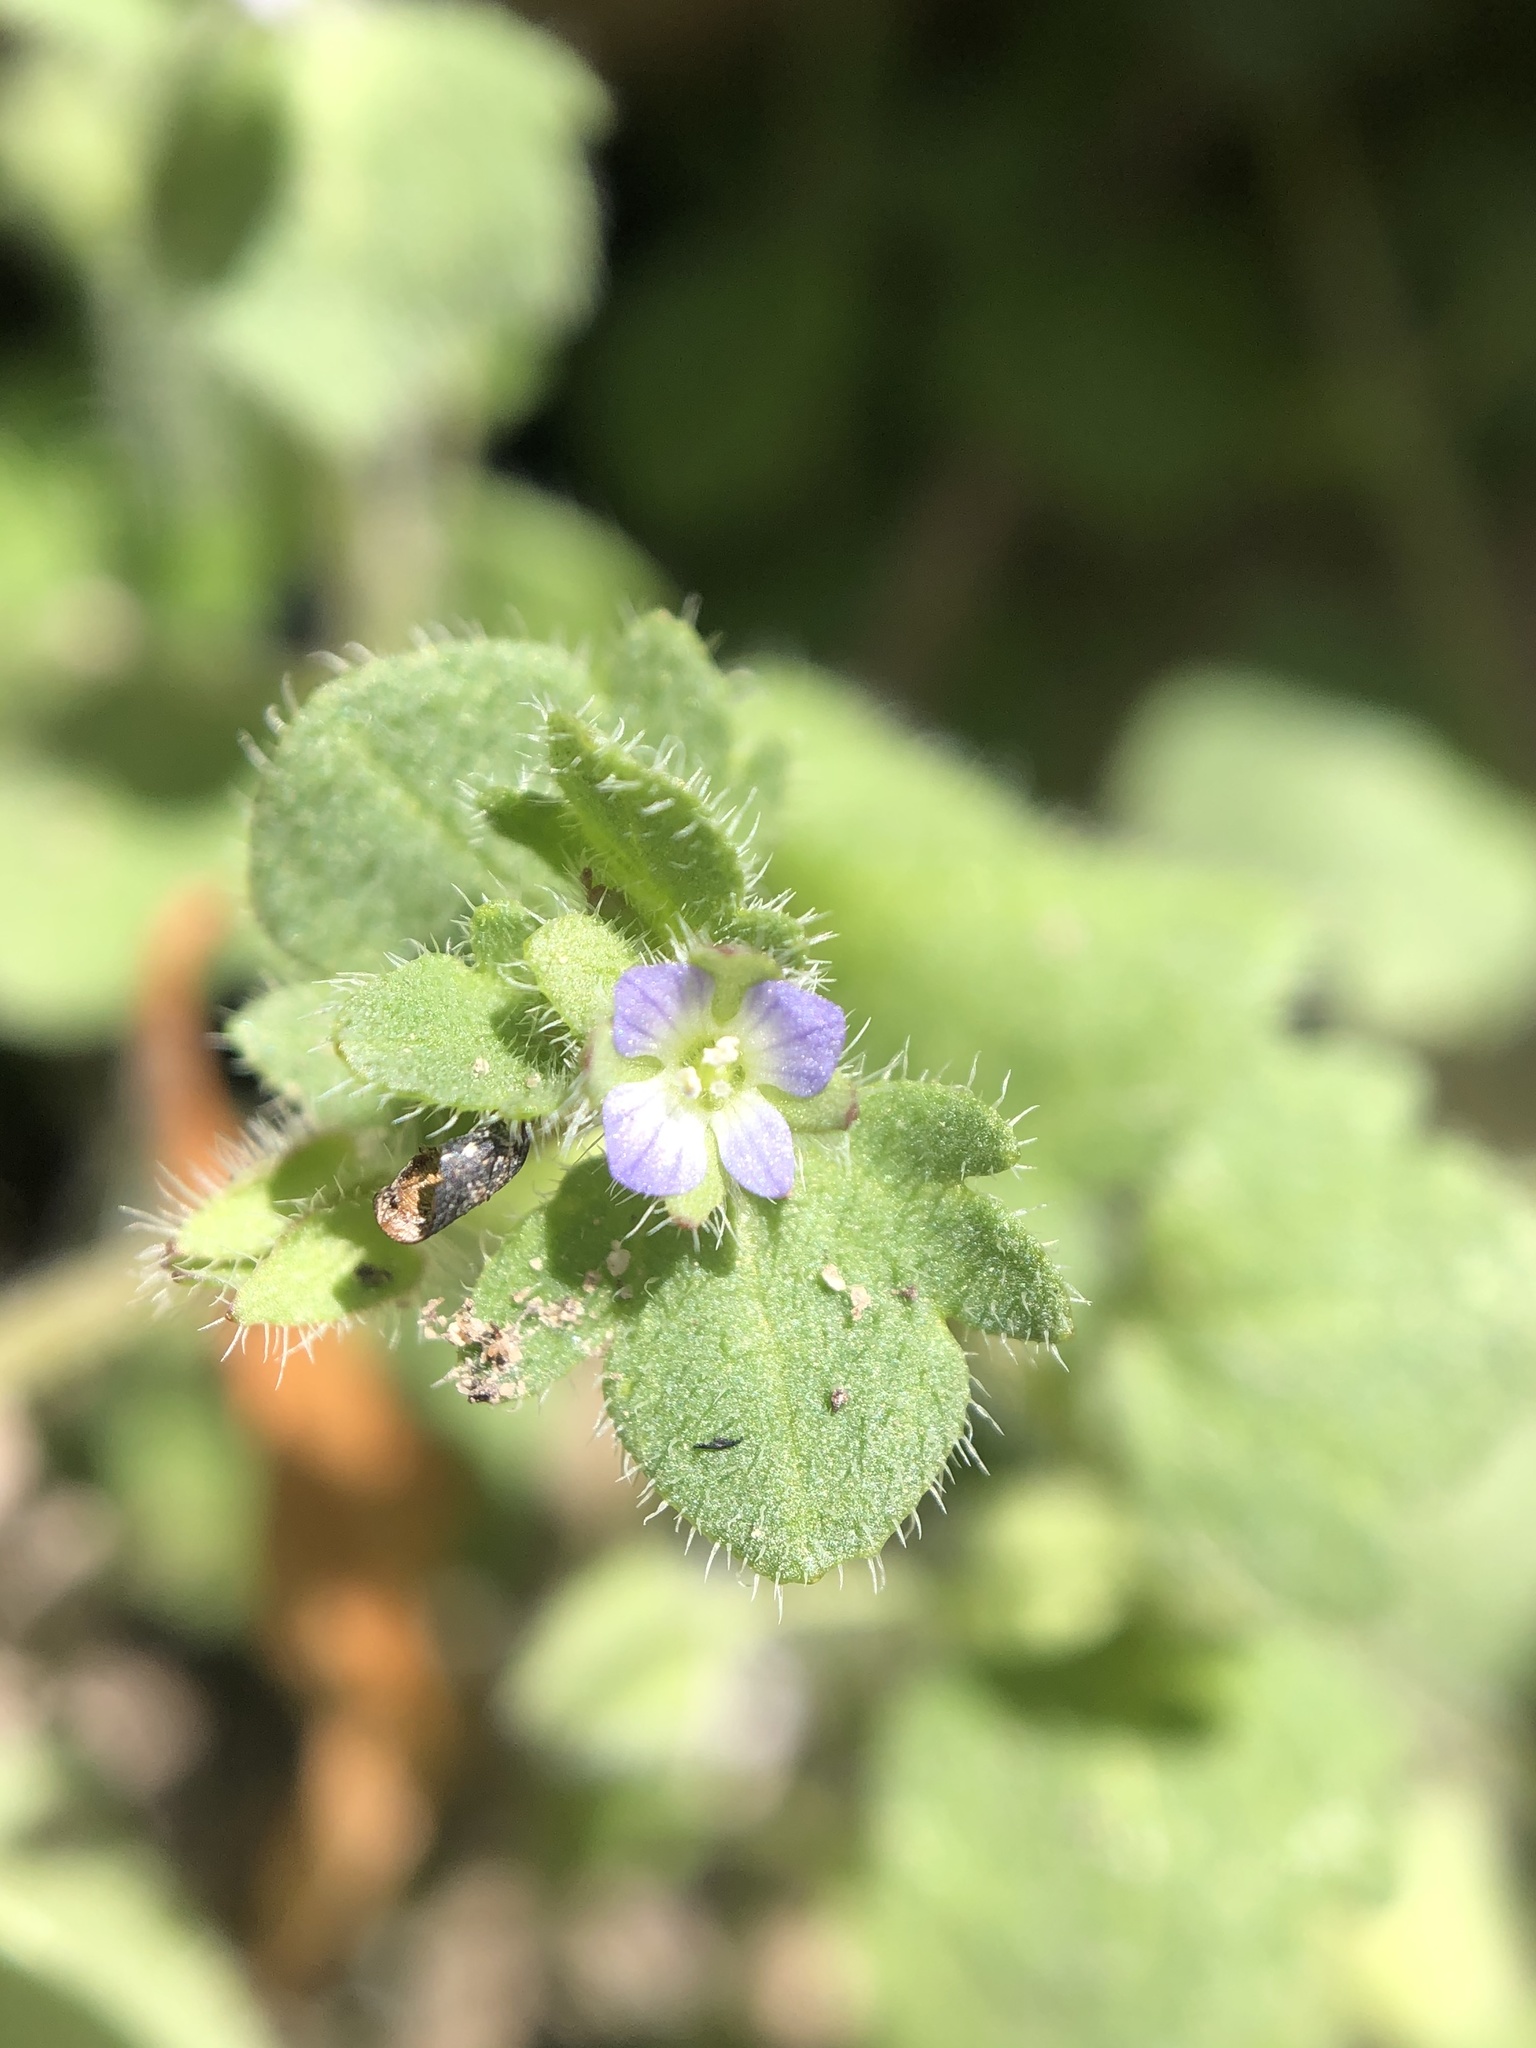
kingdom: Plantae
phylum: Tracheophyta
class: Magnoliopsida
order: Lamiales
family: Plantaginaceae
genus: Veronica
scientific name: Veronica hederifolia
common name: Ivy-leaved speedwell
